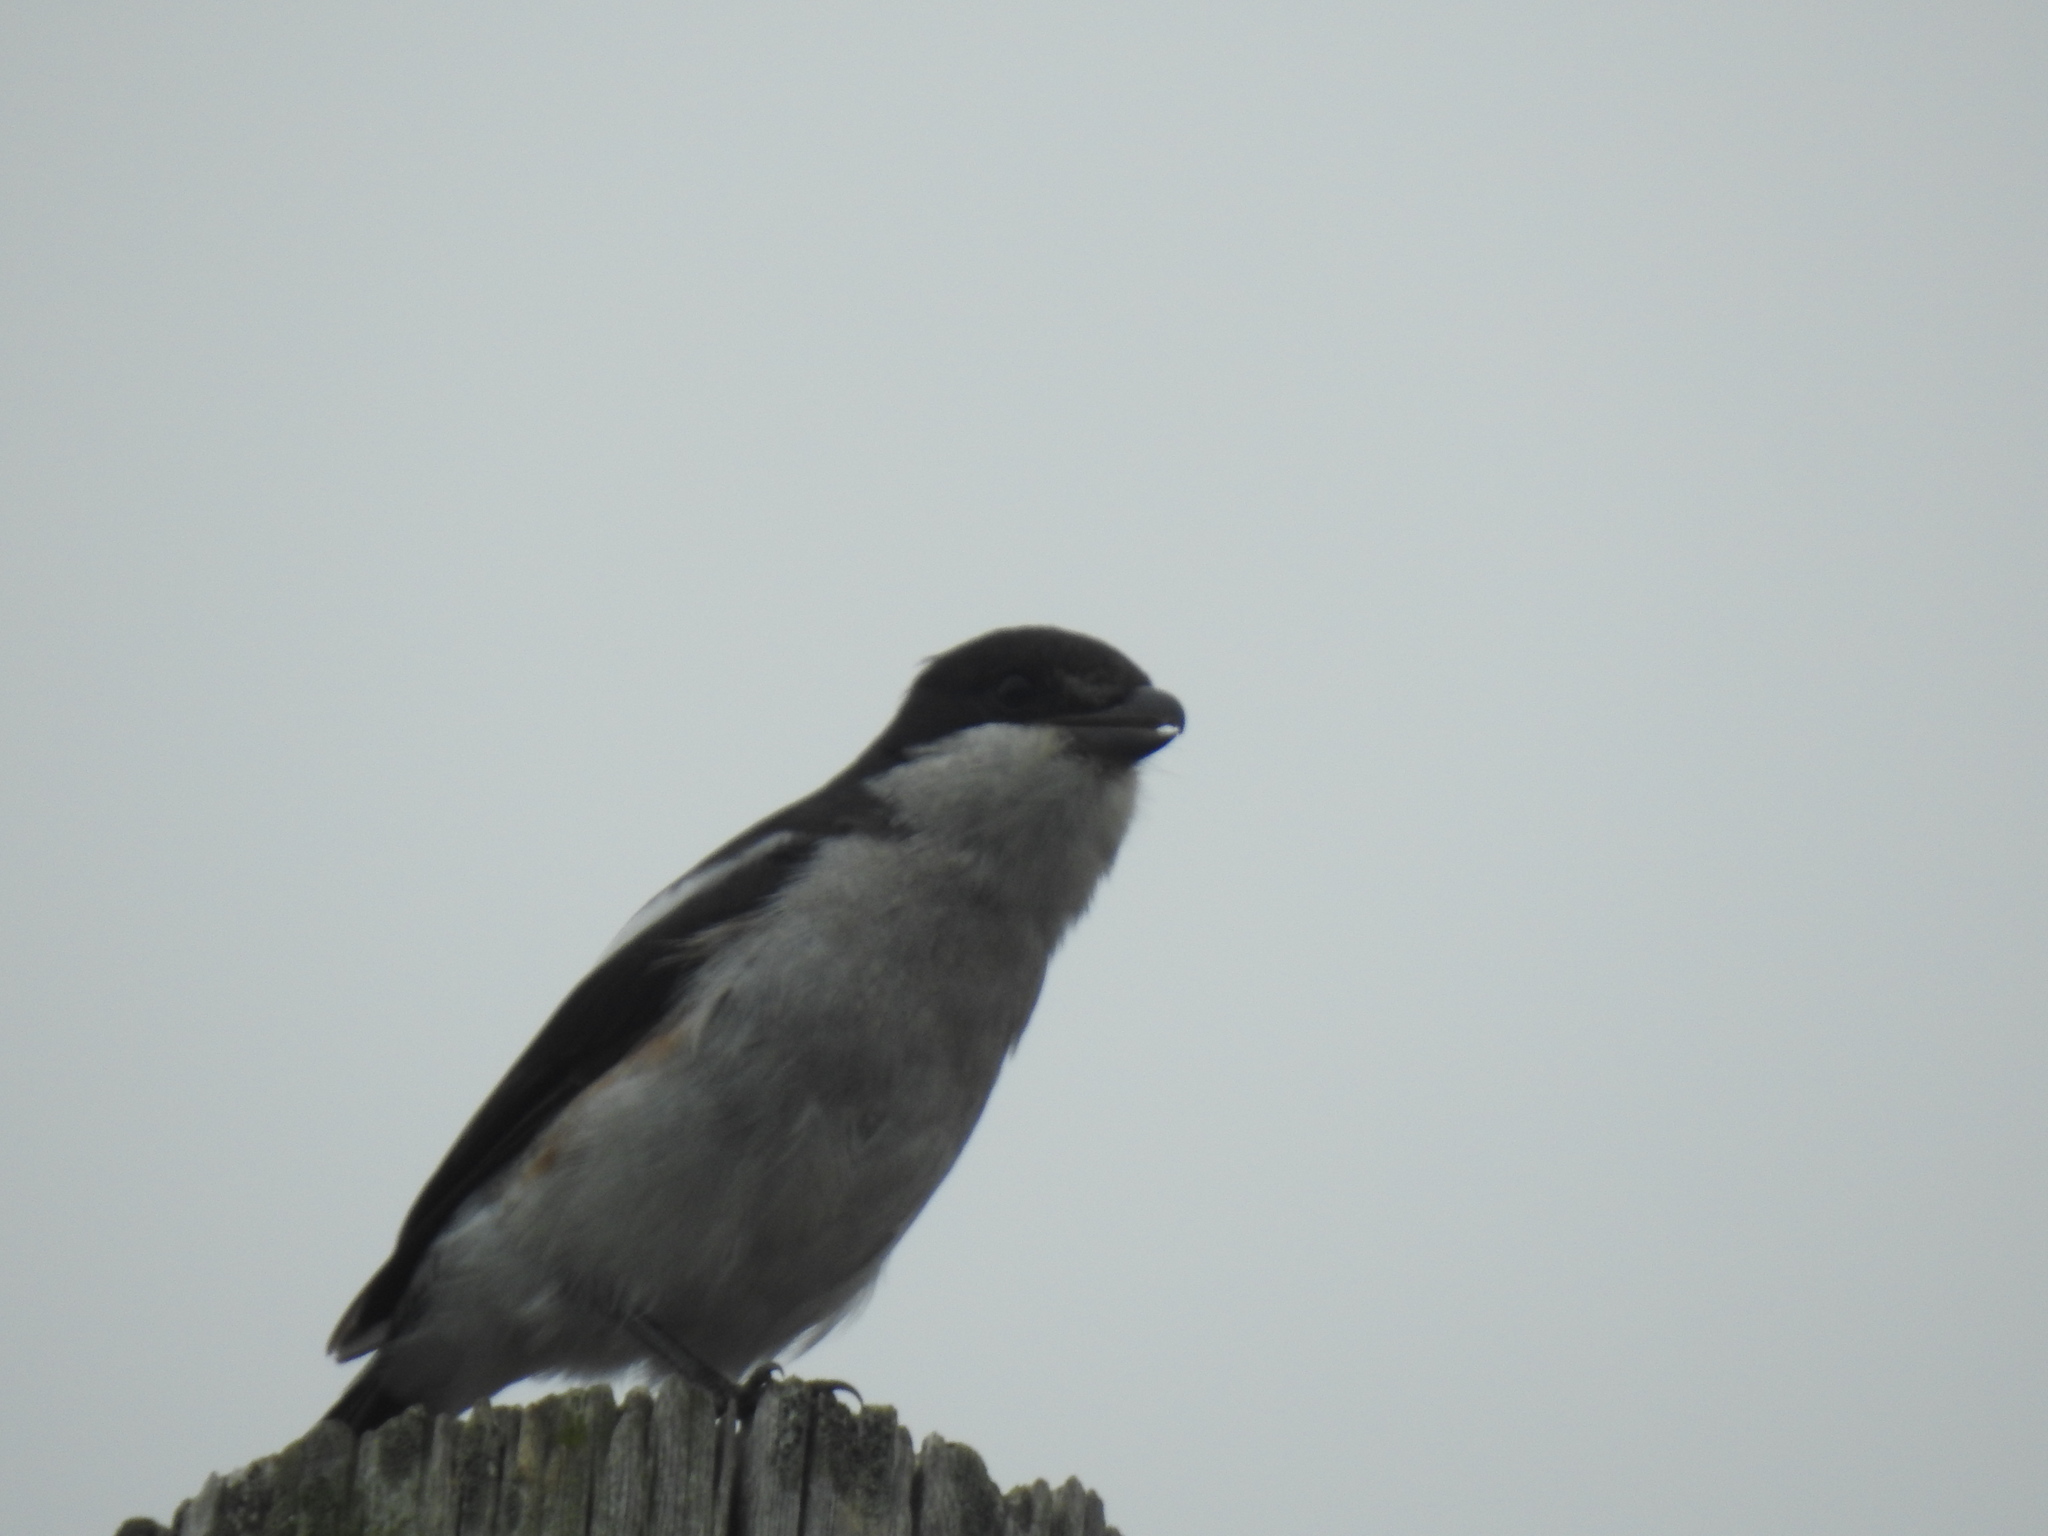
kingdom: Animalia
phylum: Chordata
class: Aves
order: Passeriformes
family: Laniidae
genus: Lanius
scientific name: Lanius collaris
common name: Southern fiscal
